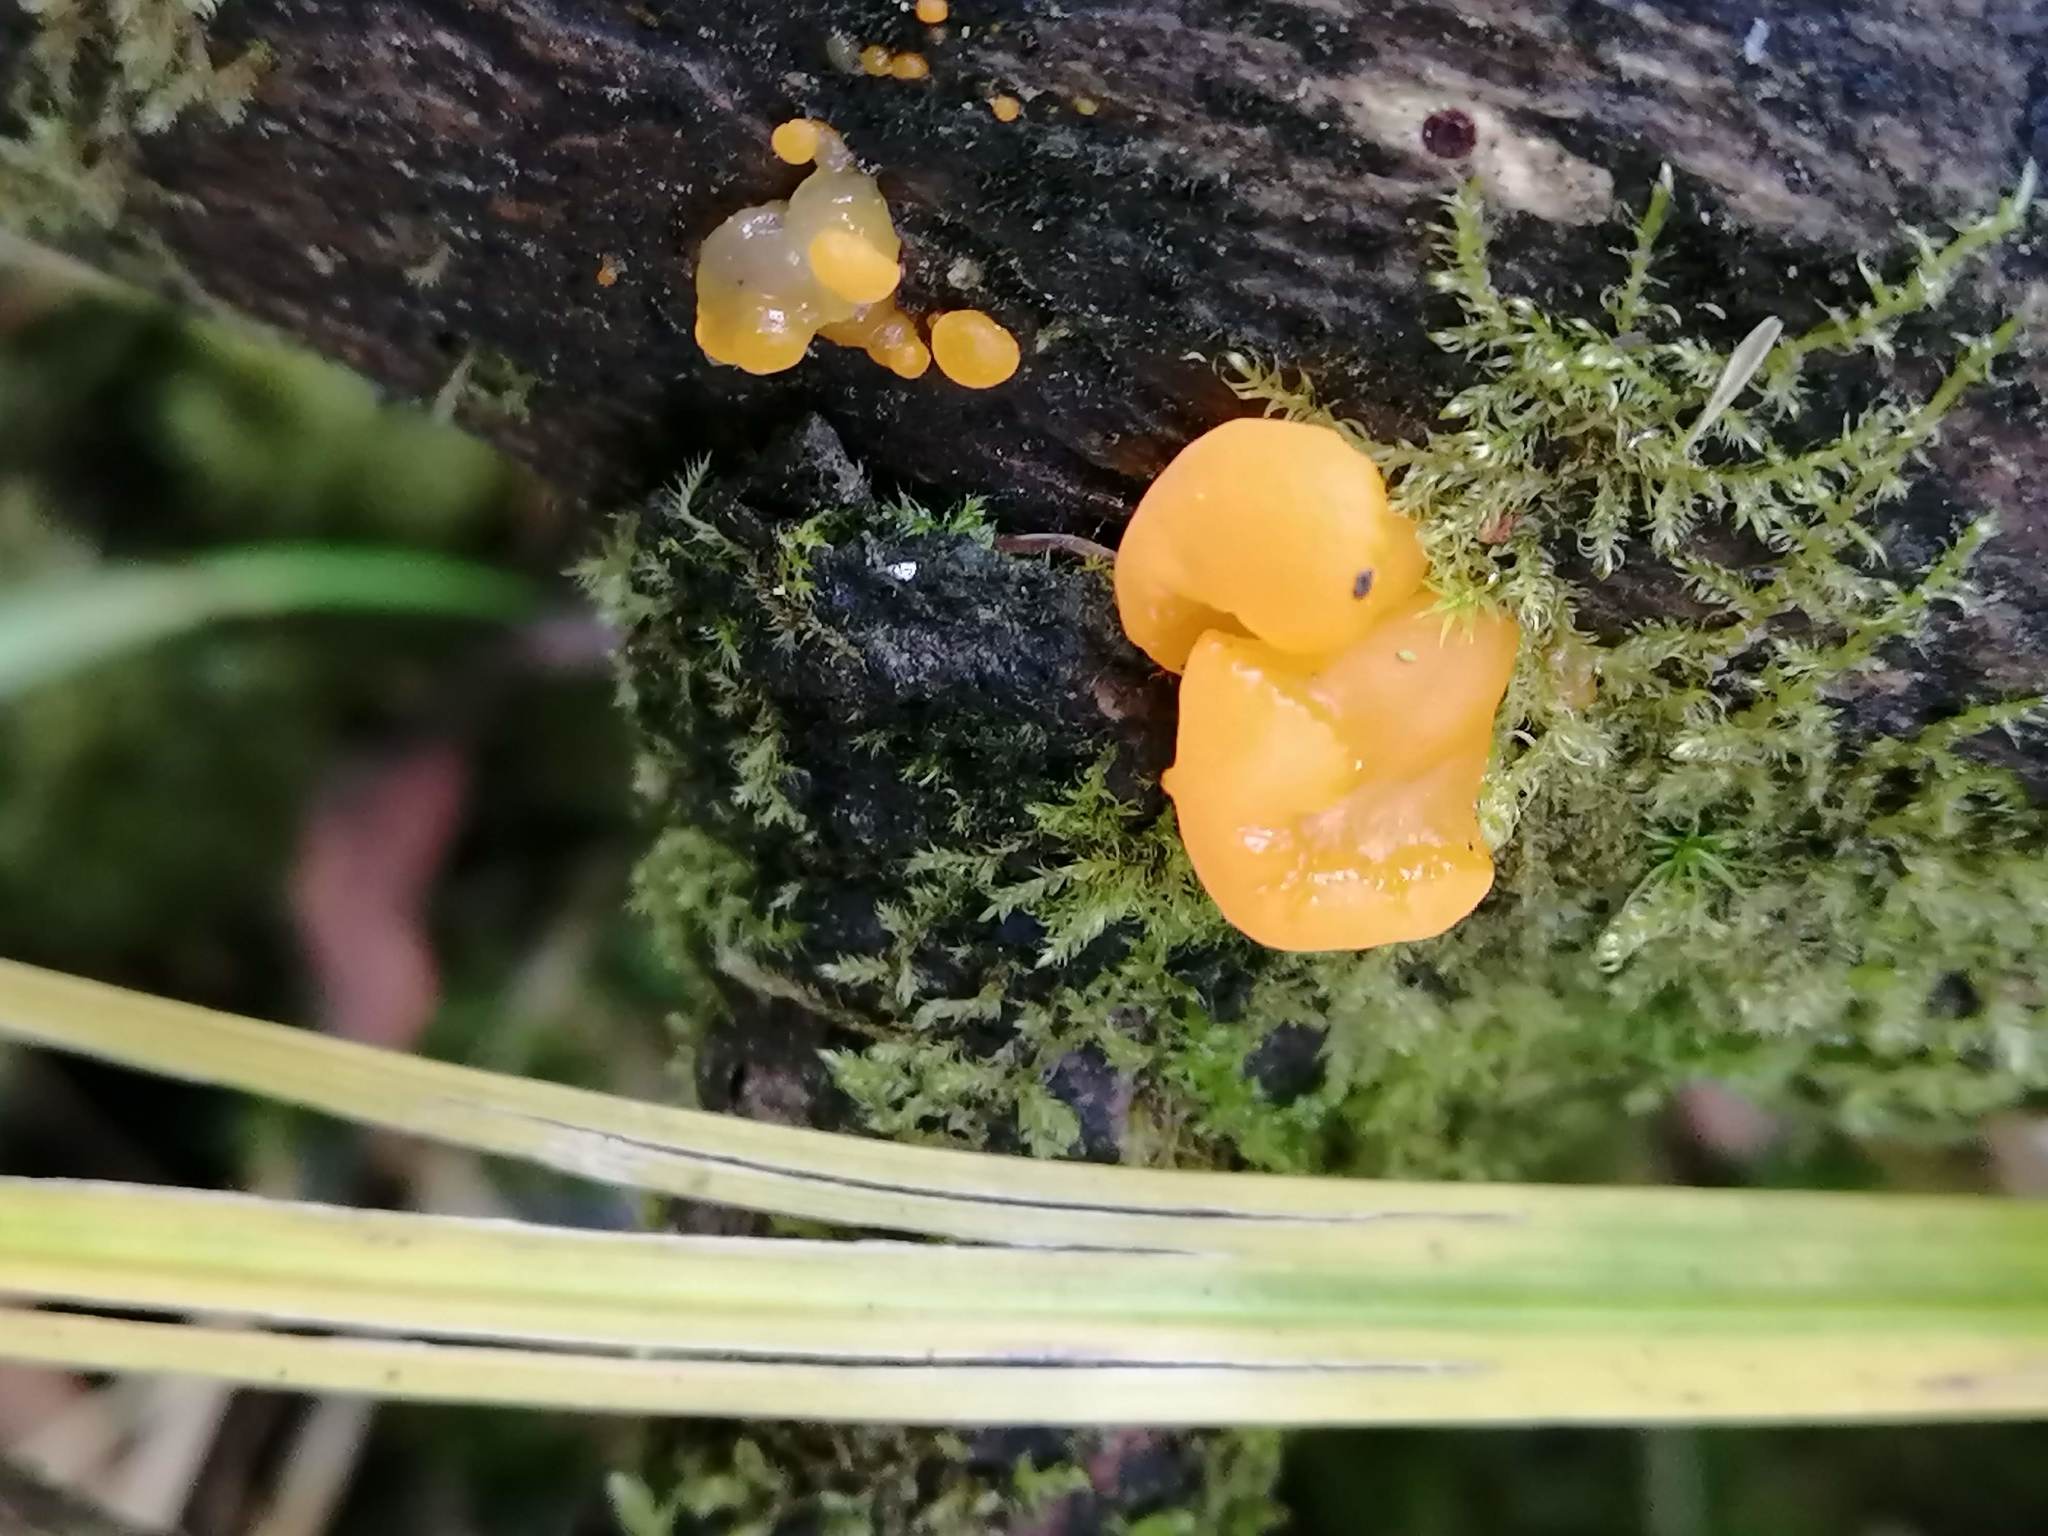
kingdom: Fungi
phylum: Basidiomycota
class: Dacrymycetes
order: Dacrymycetales
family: Dacrymycetaceae
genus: Dacrymyces
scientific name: Dacrymyces chrysospermus
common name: Orange jelly spot
